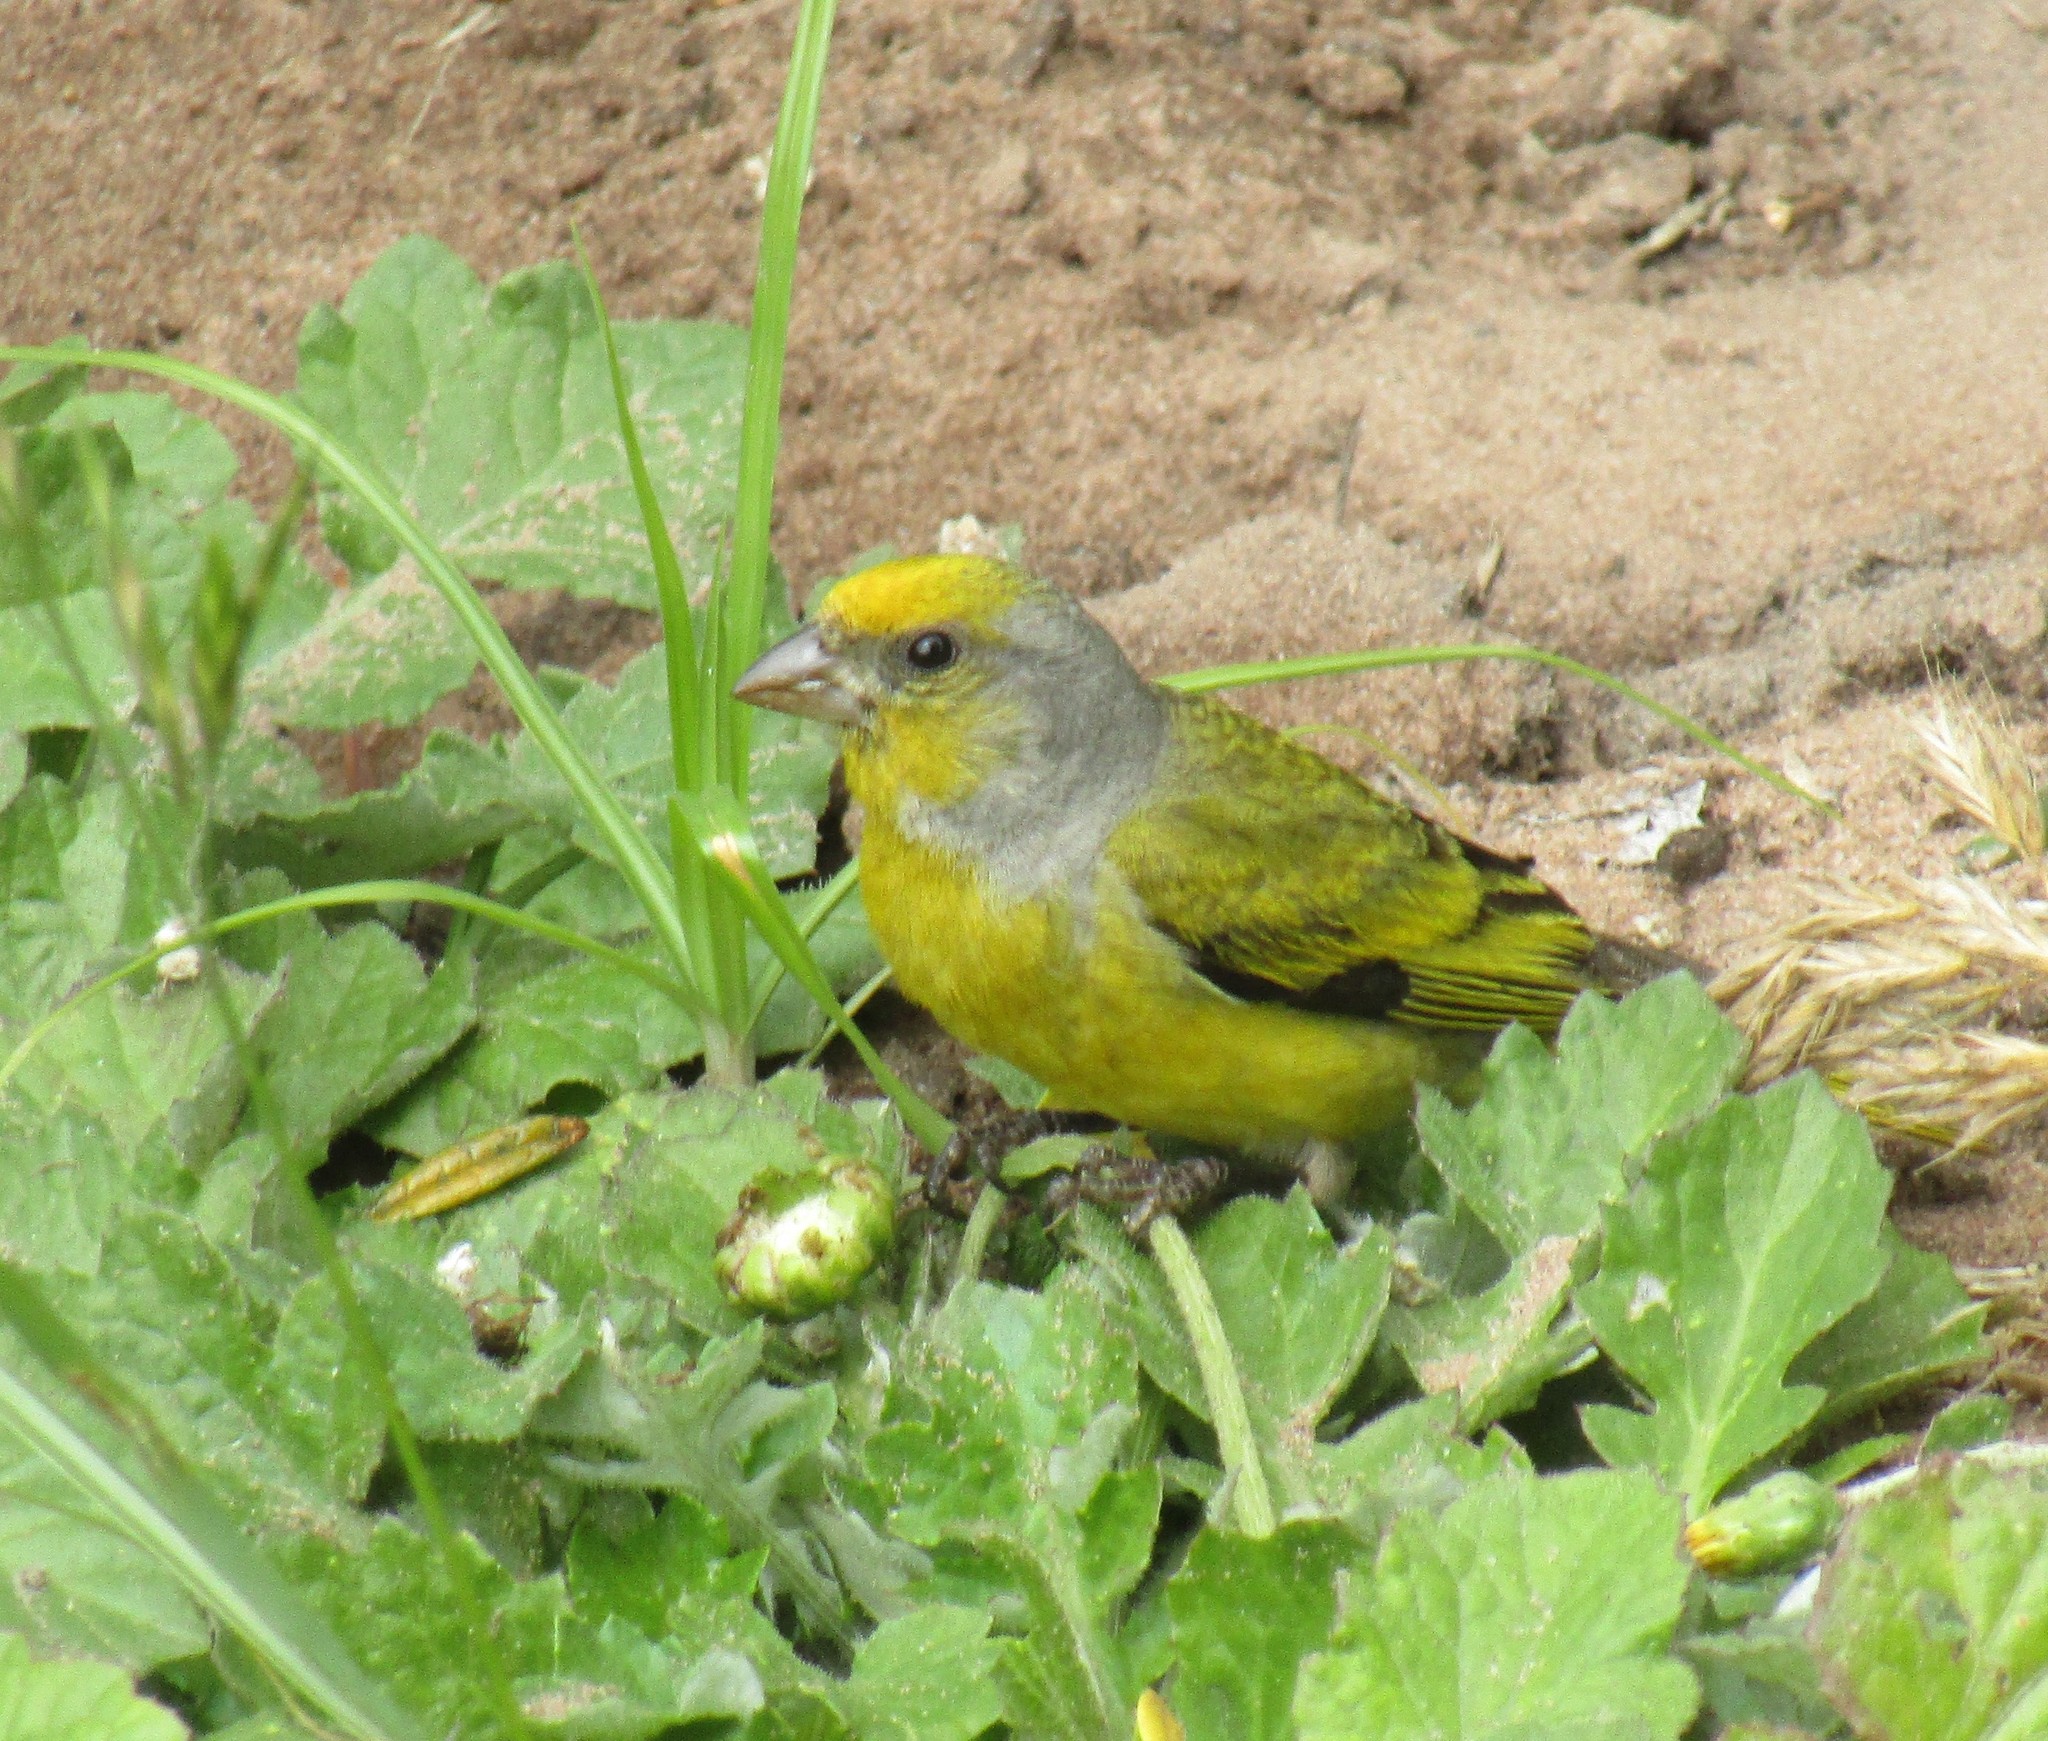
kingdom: Animalia
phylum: Chordata
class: Aves
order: Passeriformes
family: Fringillidae
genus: Serinus
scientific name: Serinus canicollis
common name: Cape canary
